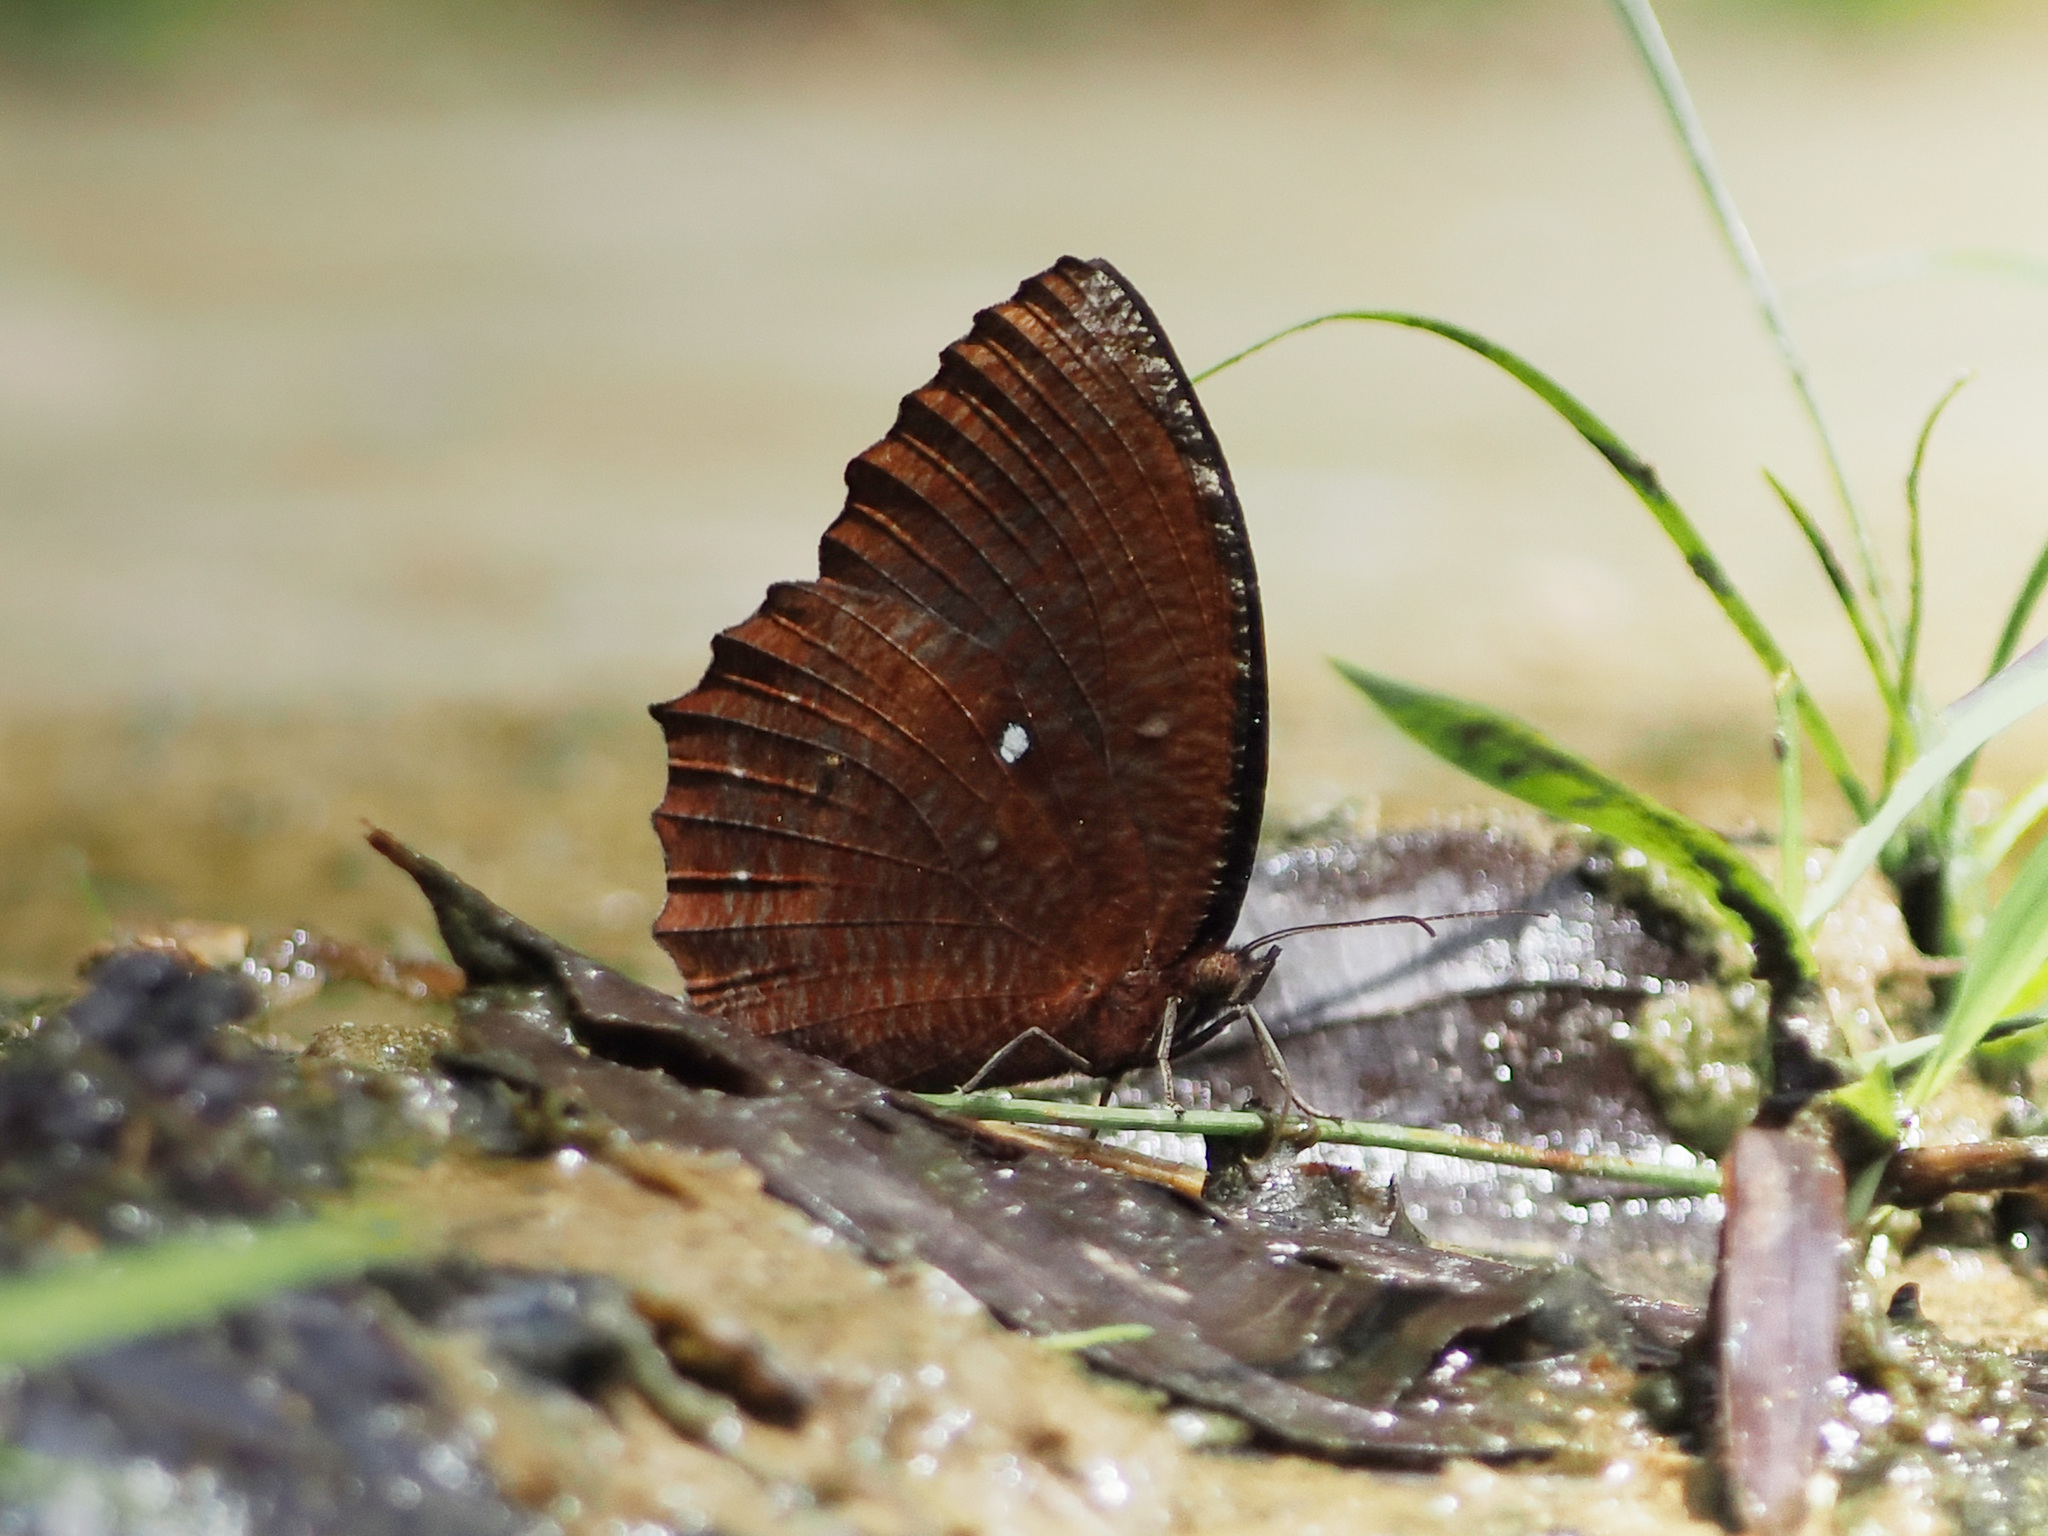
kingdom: Animalia
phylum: Arthropoda
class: Insecta
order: Lepidoptera
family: Nymphalidae
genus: Elymnias
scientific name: Elymnias hypermnestra
